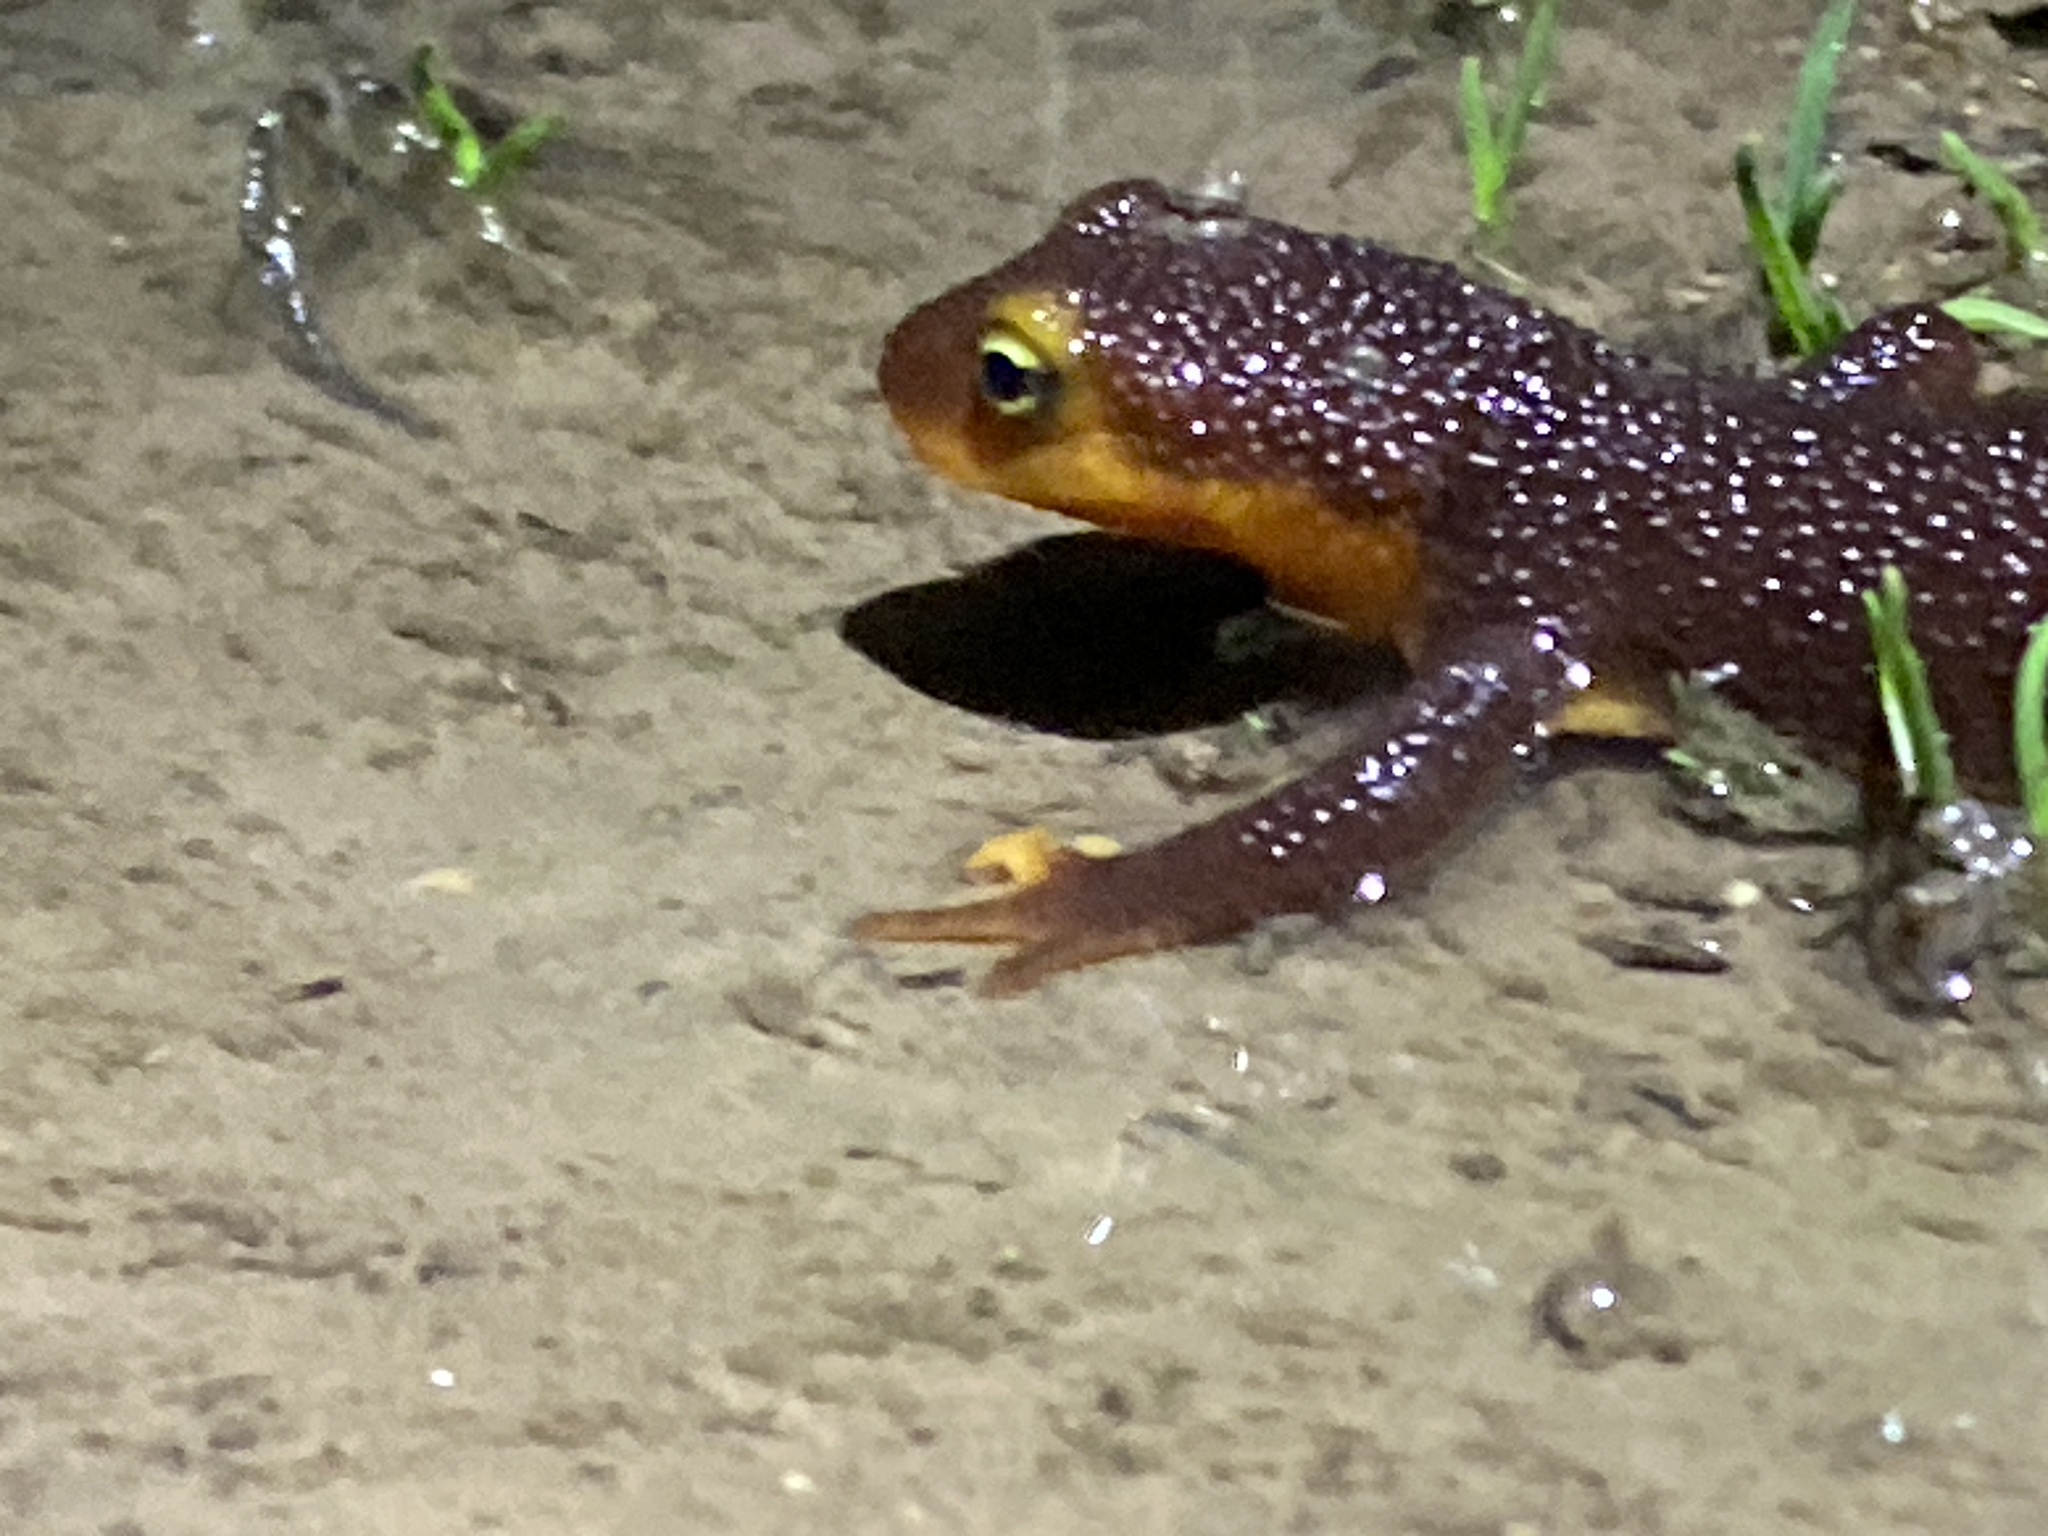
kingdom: Animalia
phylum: Chordata
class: Amphibia
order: Caudata
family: Salamandridae
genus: Taricha
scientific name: Taricha torosa
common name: California newt
